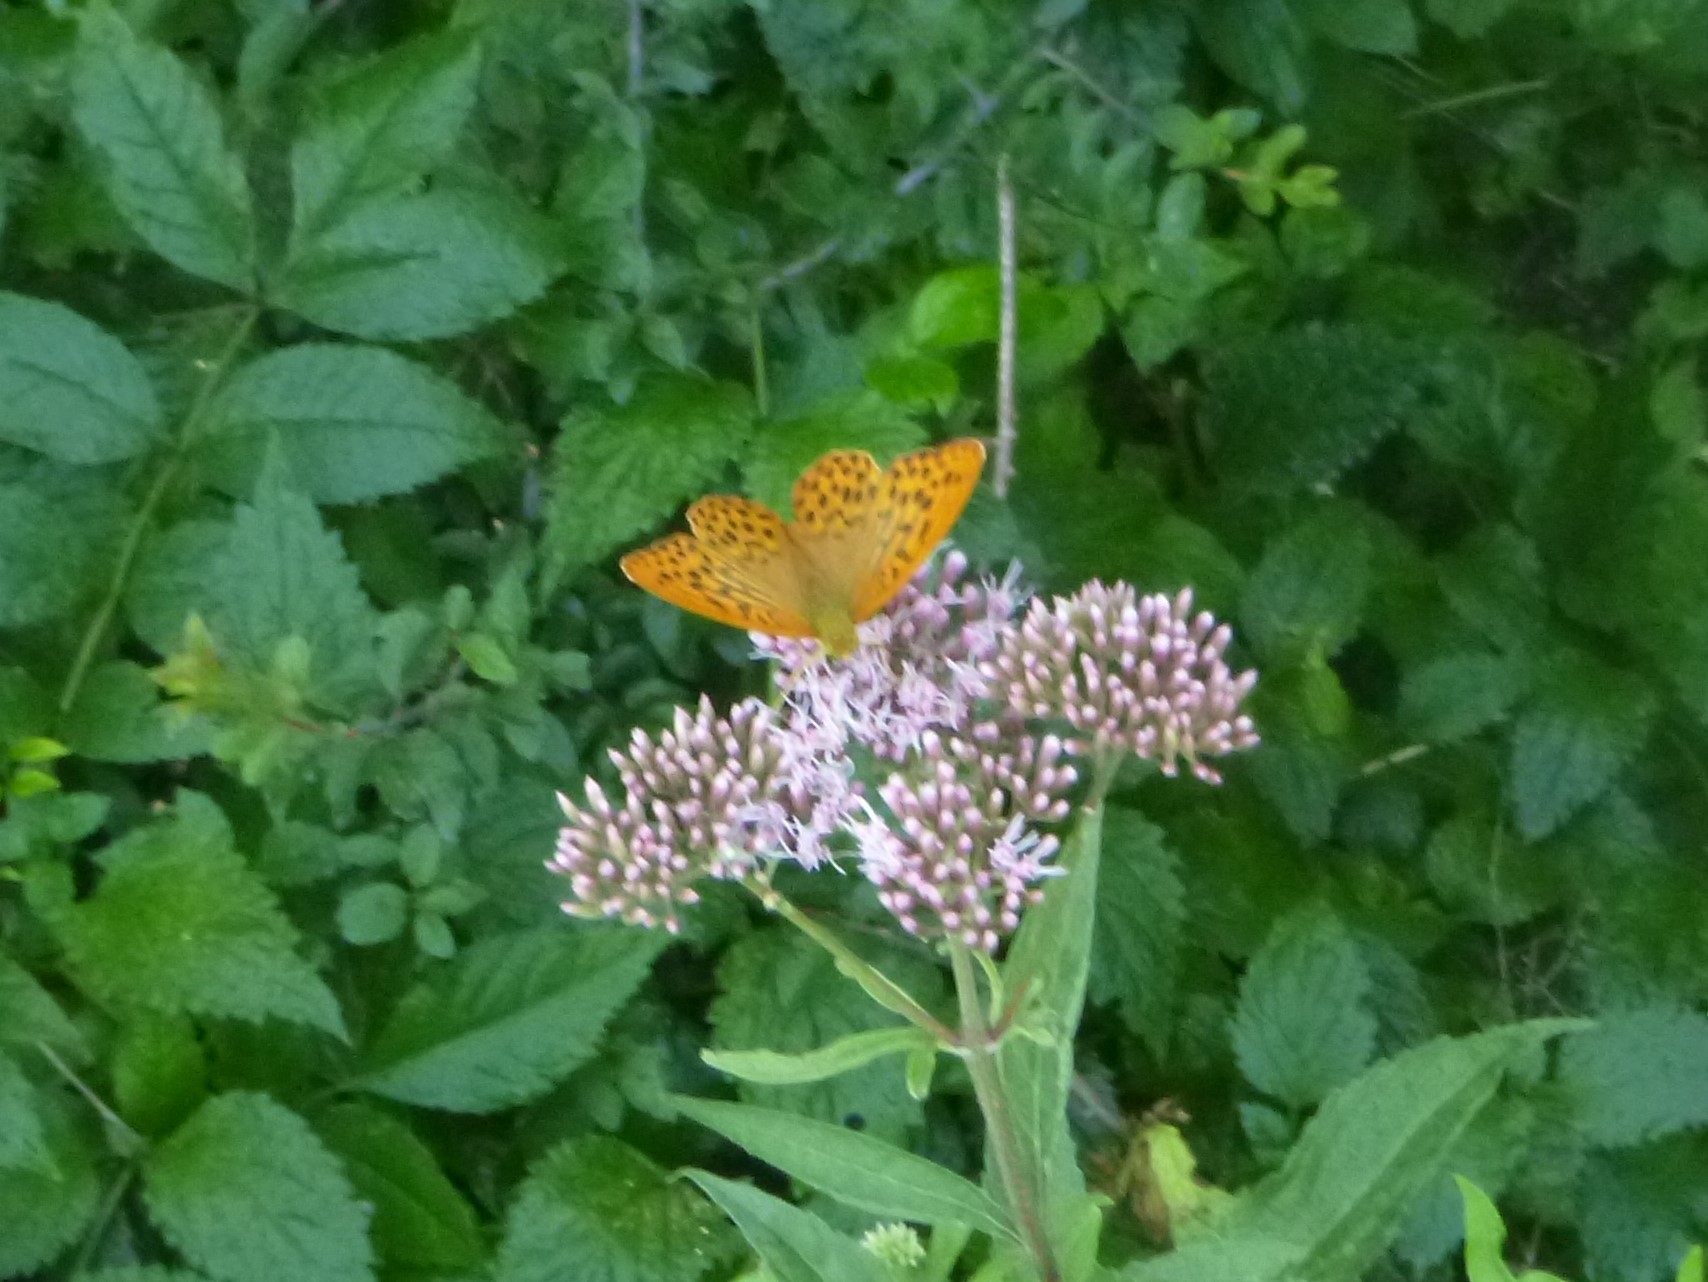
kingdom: Animalia
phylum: Arthropoda
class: Insecta
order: Lepidoptera
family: Nymphalidae
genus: Argynnis
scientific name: Argynnis paphia
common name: Silver-washed fritillary
